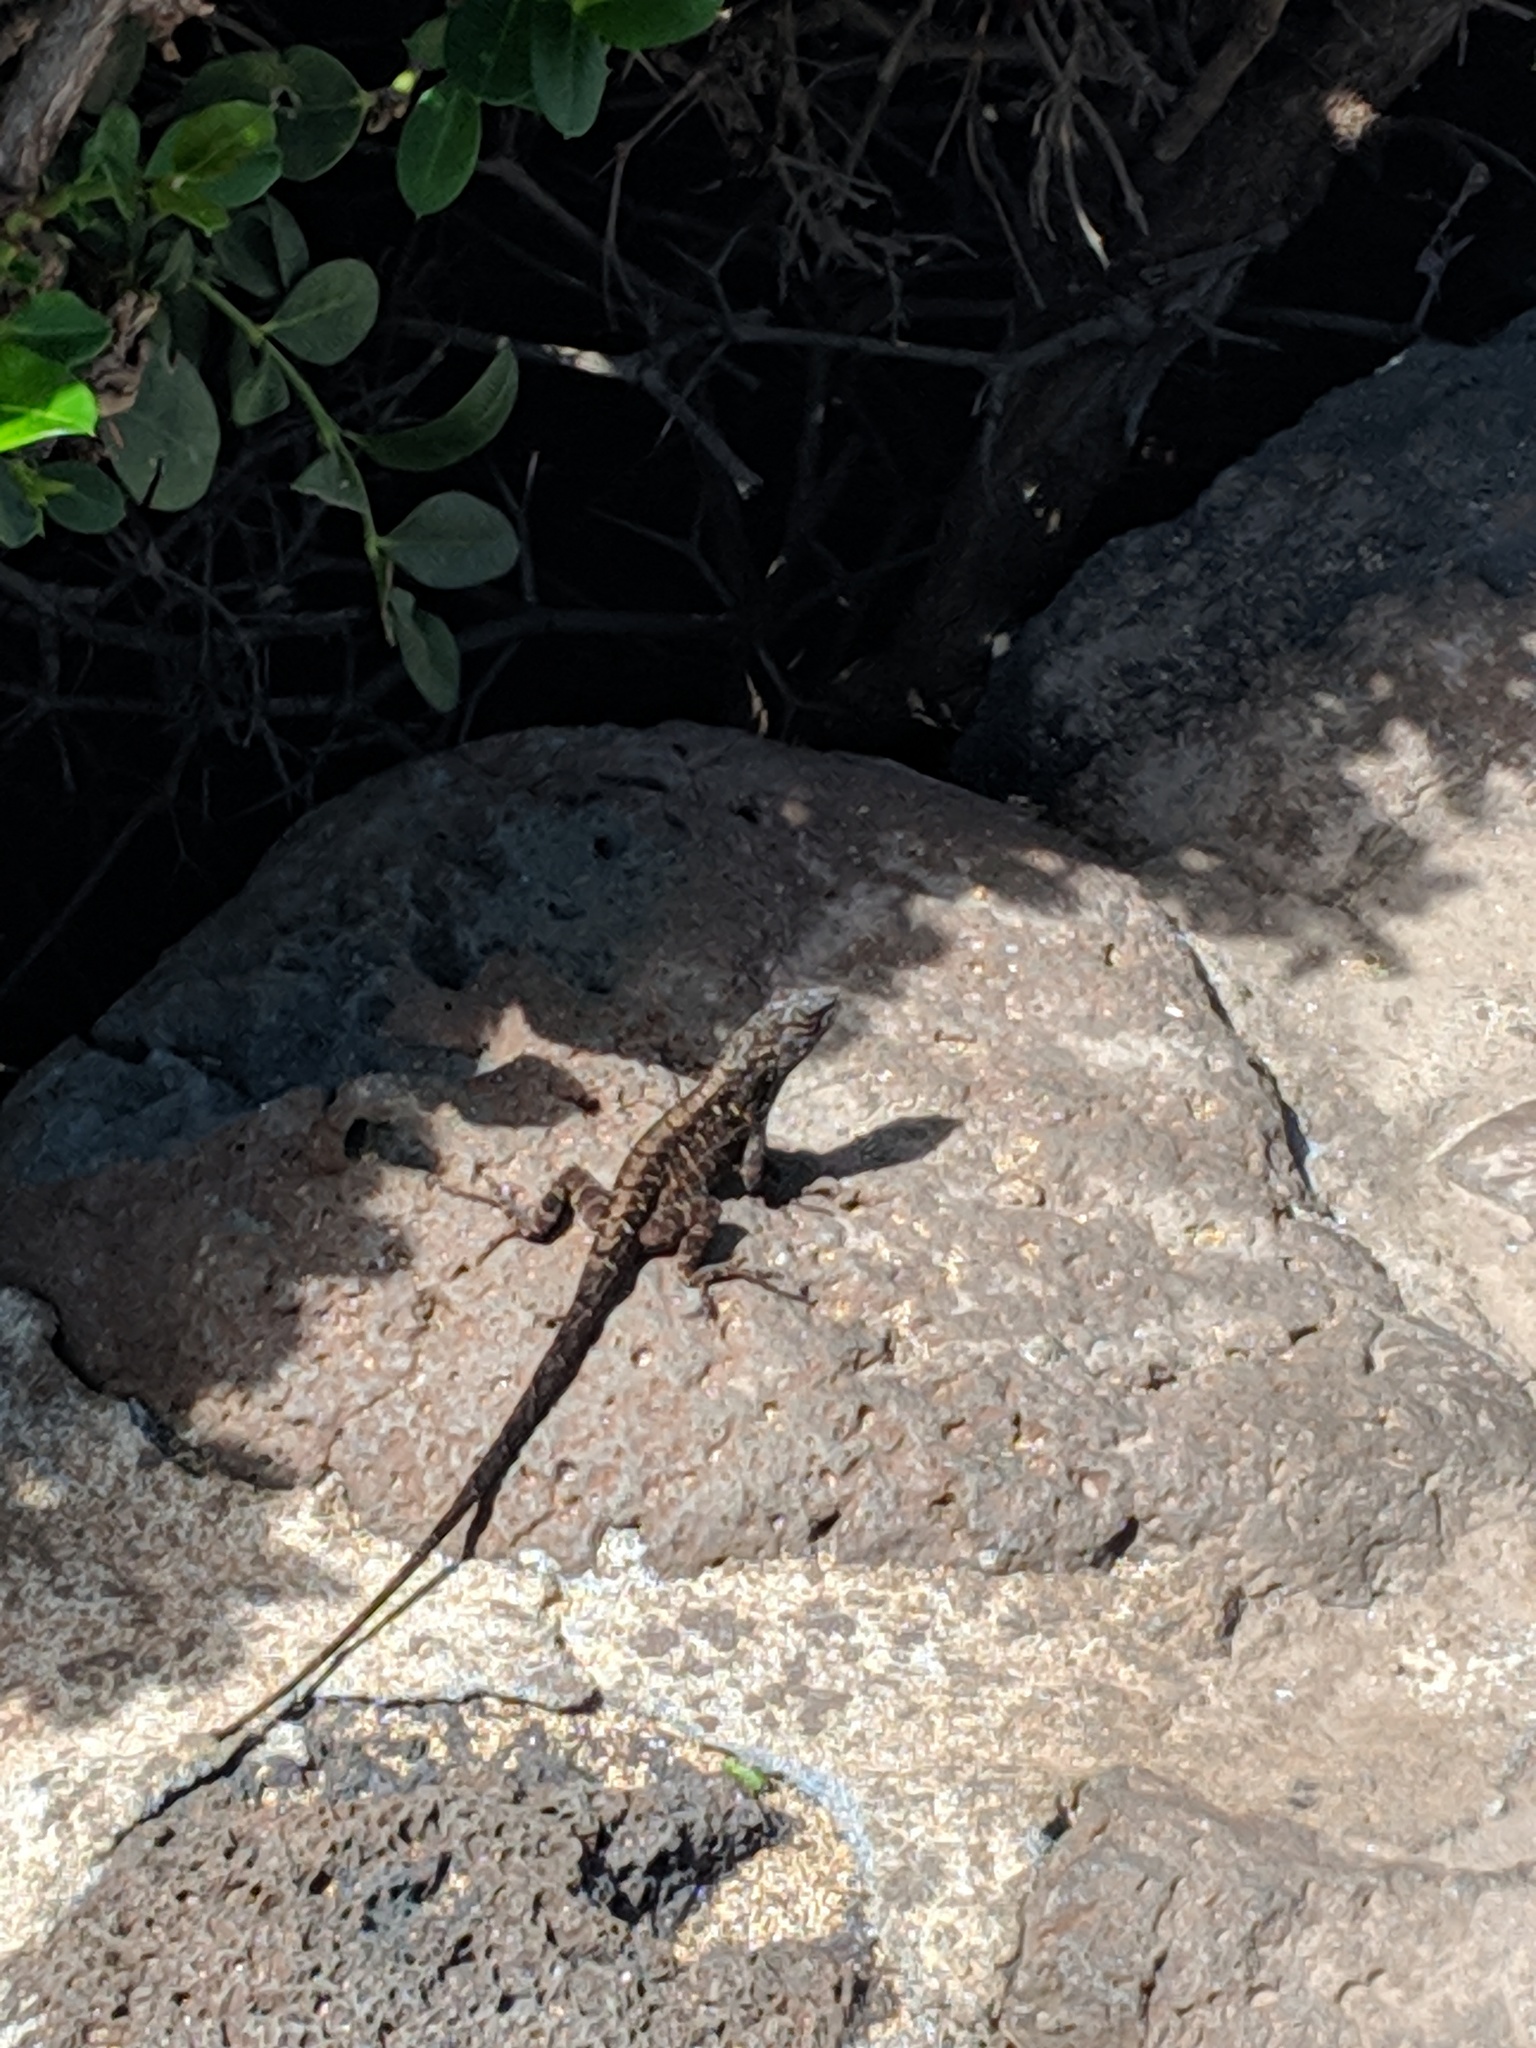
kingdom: Animalia
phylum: Chordata
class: Squamata
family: Dactyloidae
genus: Anolis
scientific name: Anolis sagrei
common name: Brown anole
